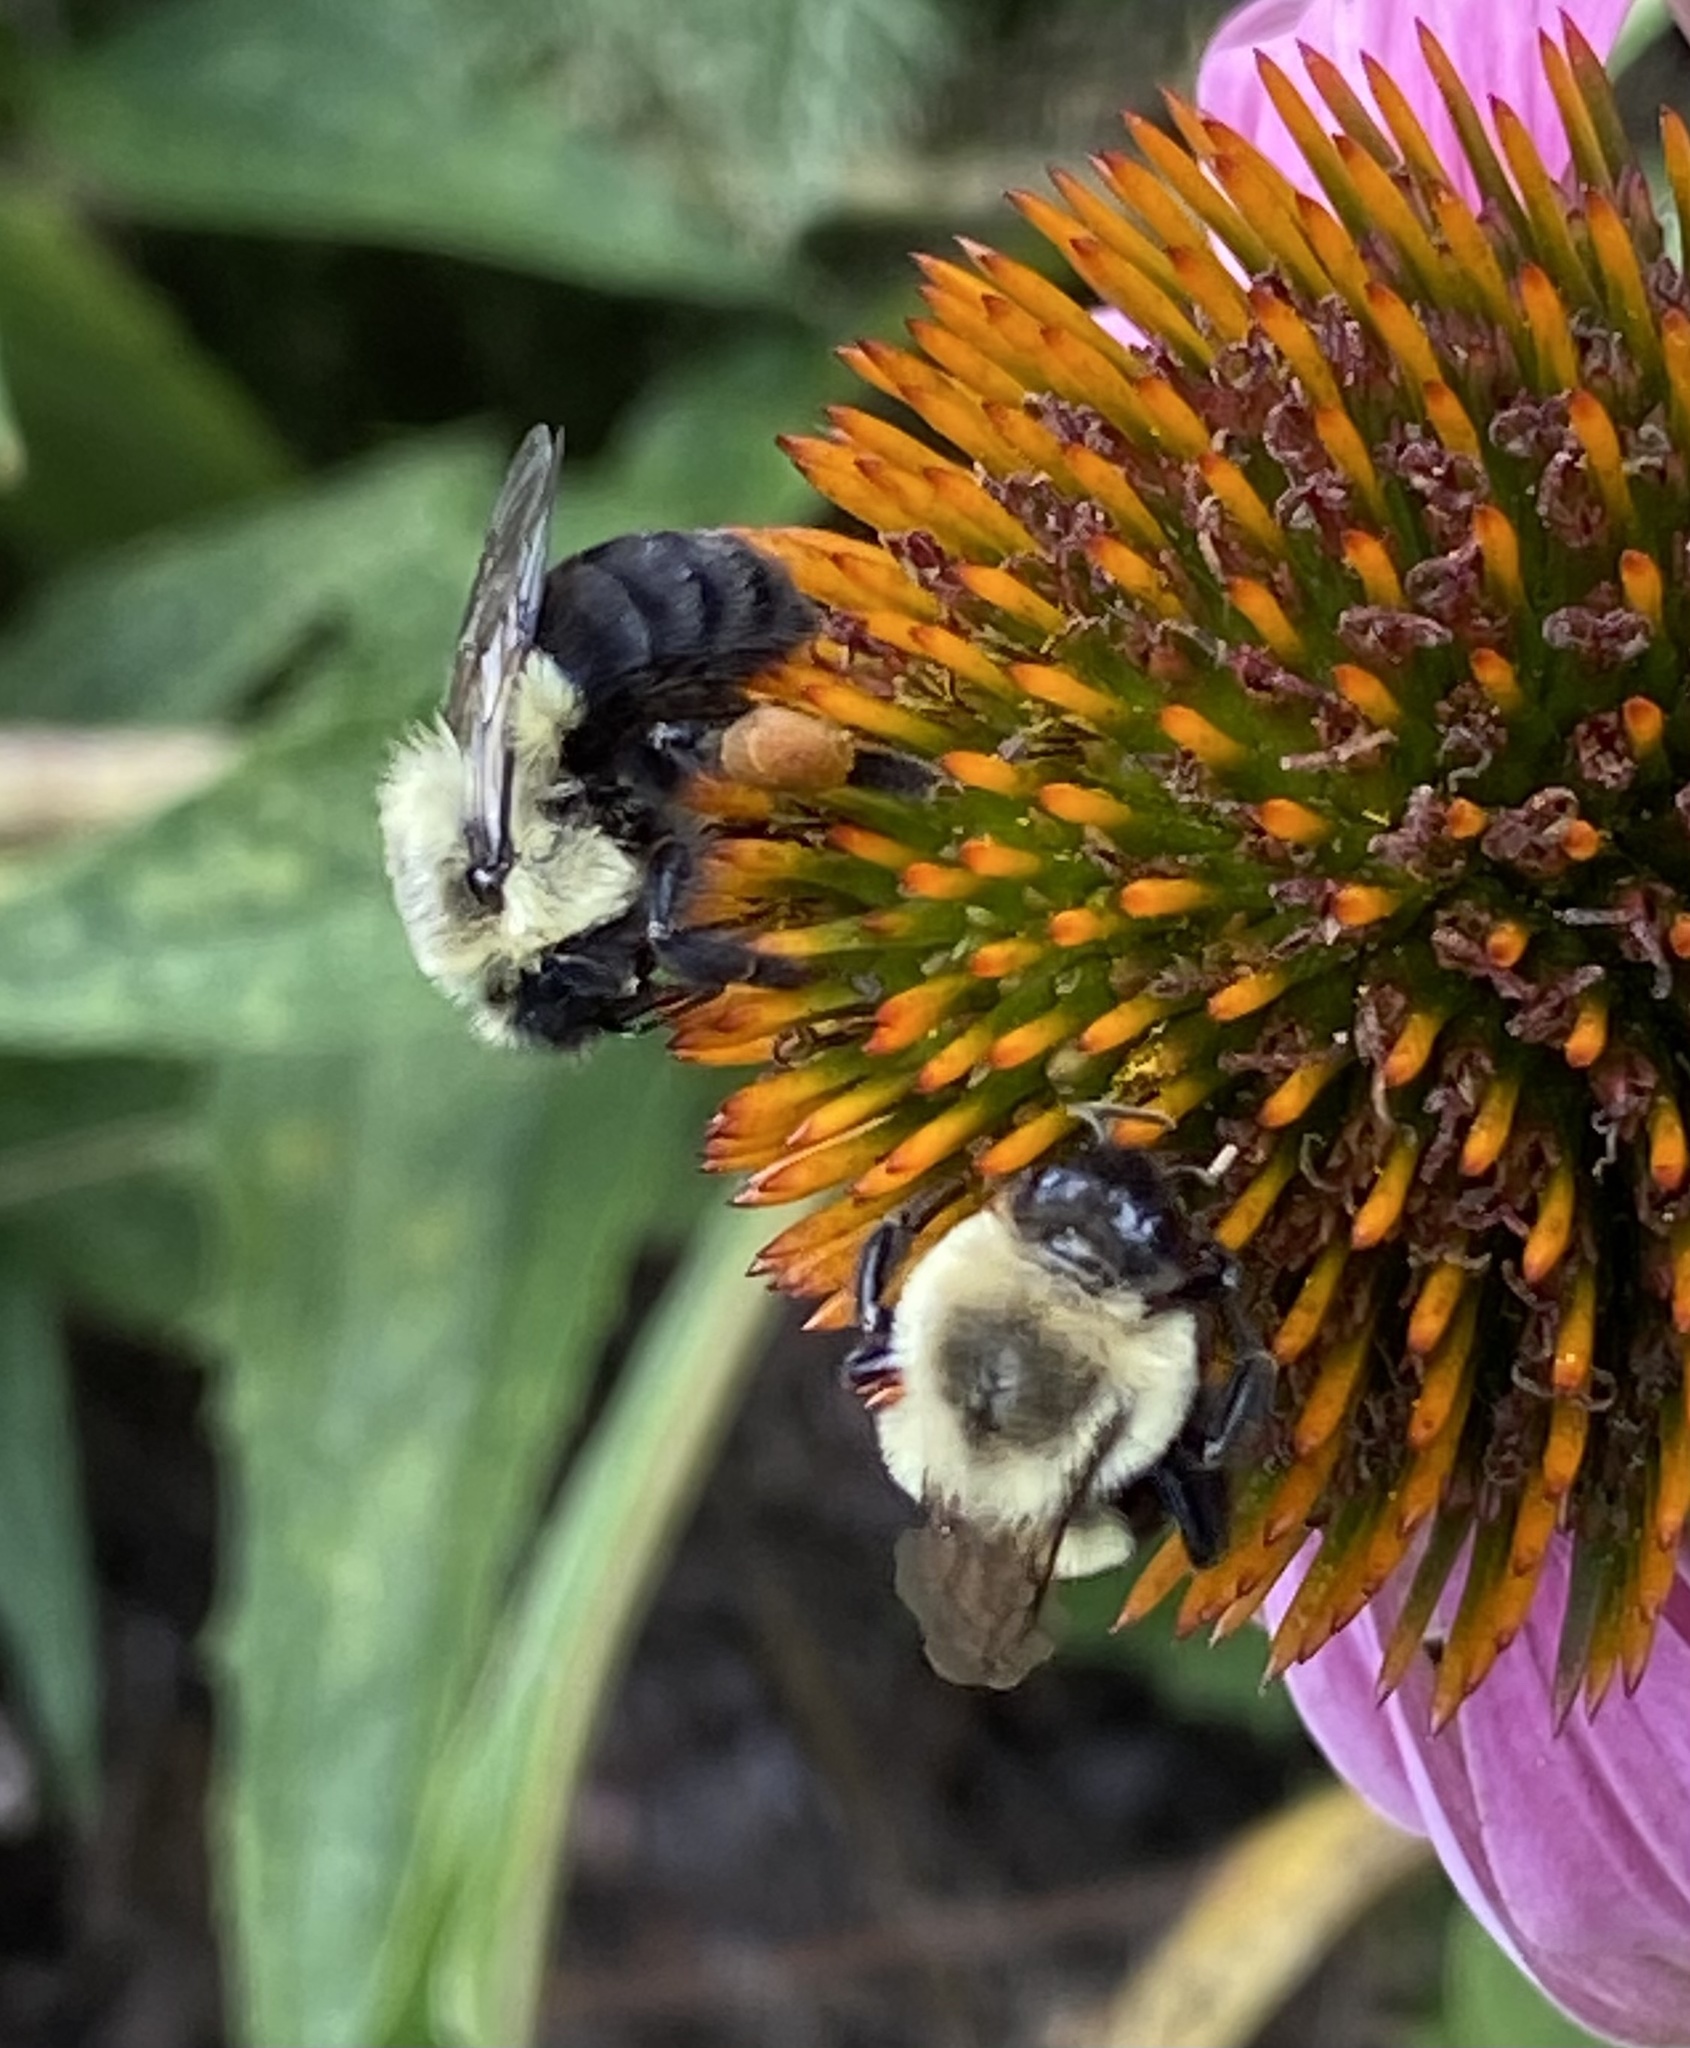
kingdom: Animalia
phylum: Arthropoda
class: Insecta
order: Hymenoptera
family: Apidae
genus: Bombus
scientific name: Bombus impatiens
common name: Common eastern bumble bee
